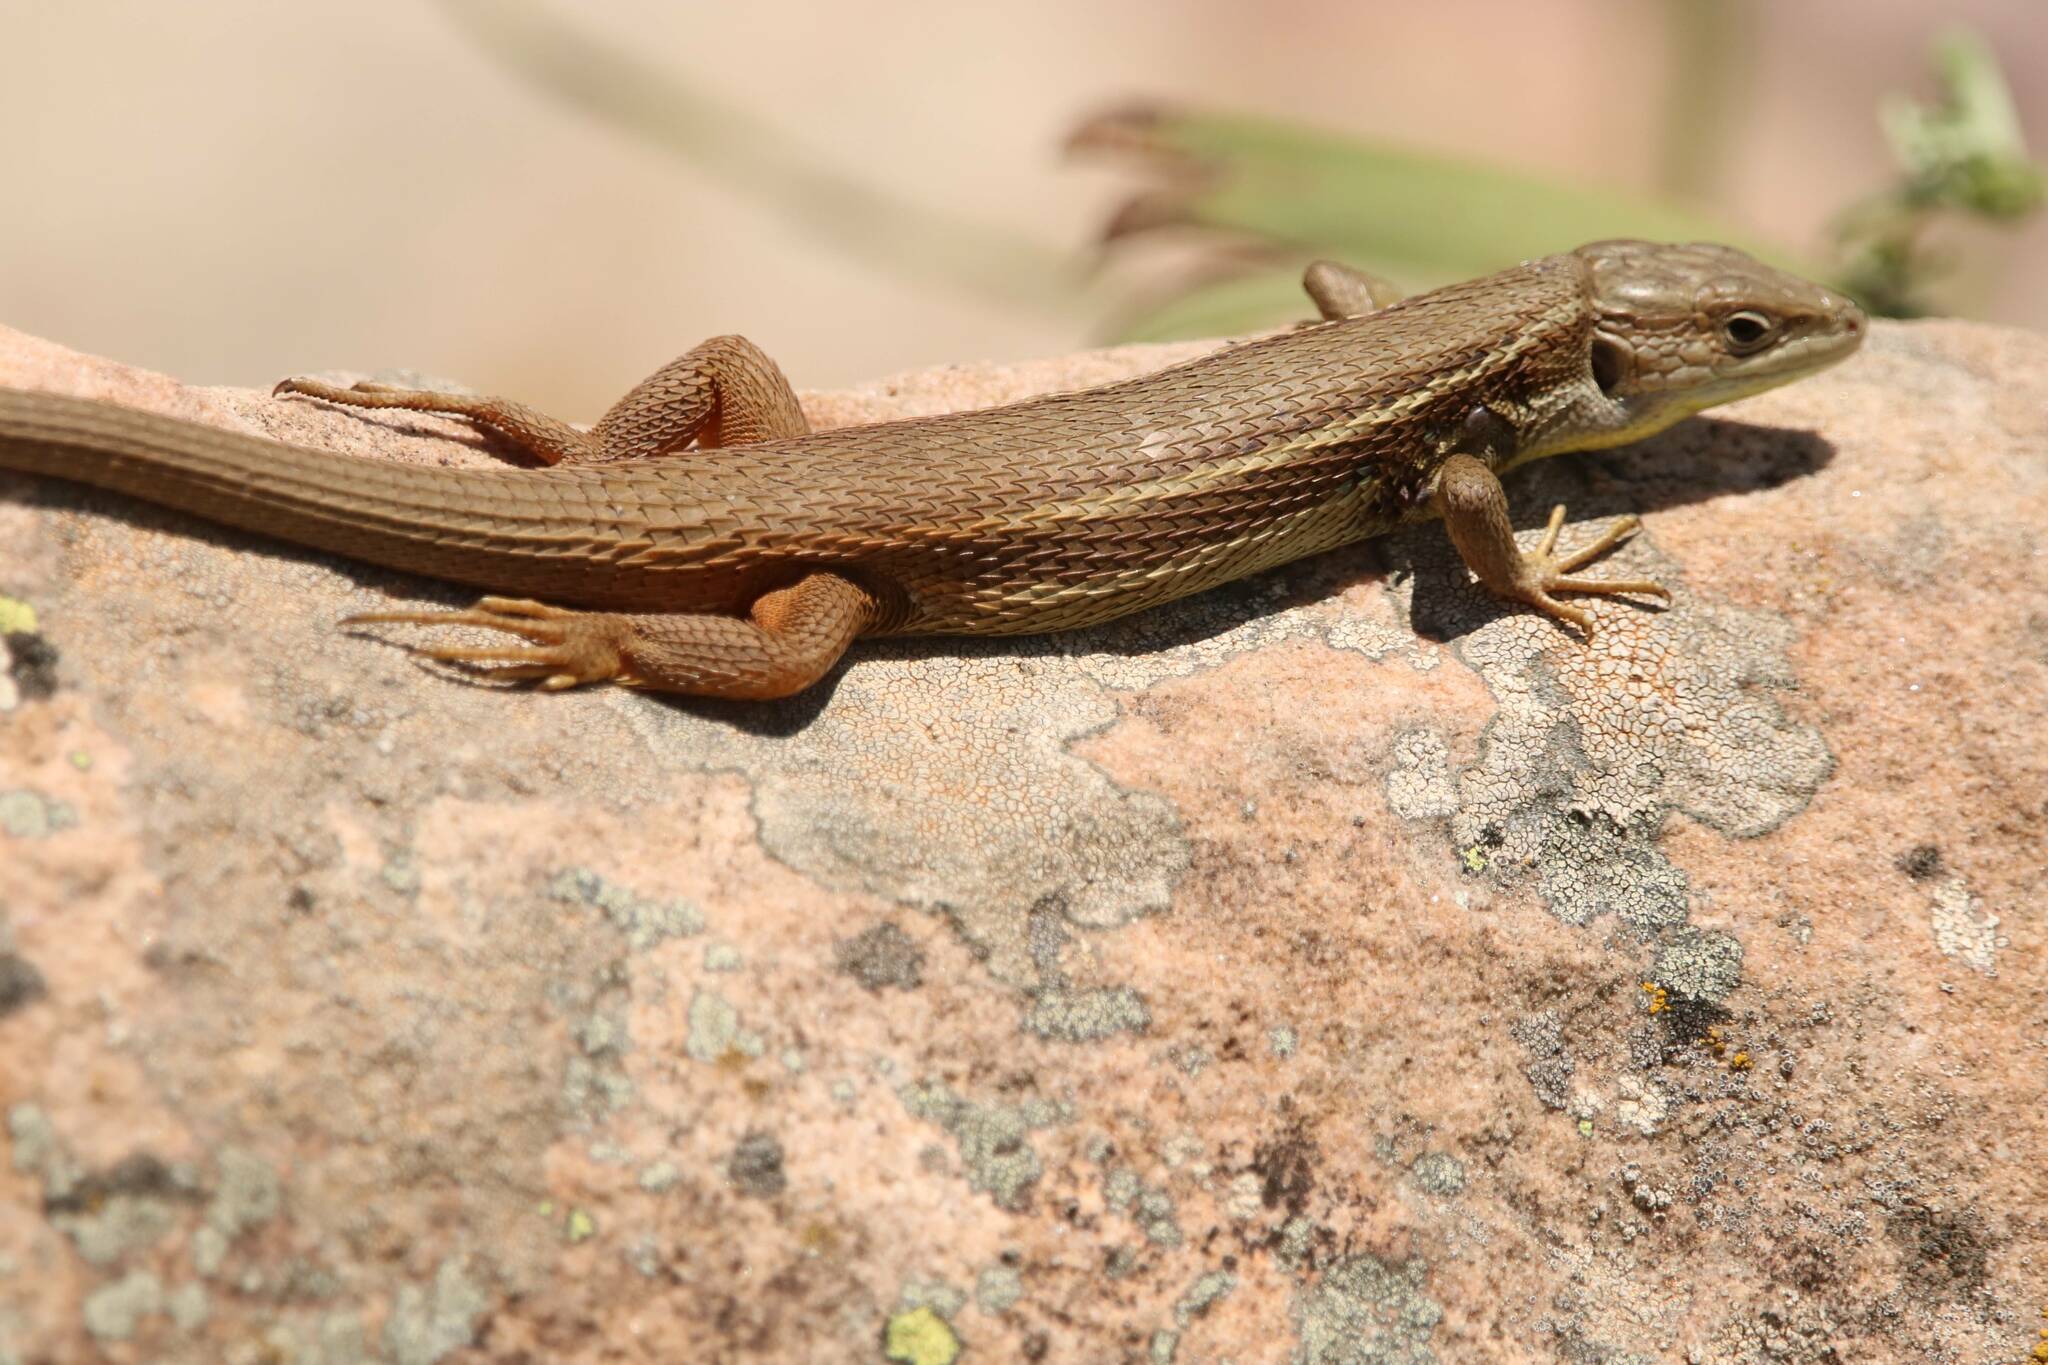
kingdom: Animalia
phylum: Chordata
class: Squamata
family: Lacertidae
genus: Psammodromus
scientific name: Psammodromus algirus
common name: Algerian psammodromus
